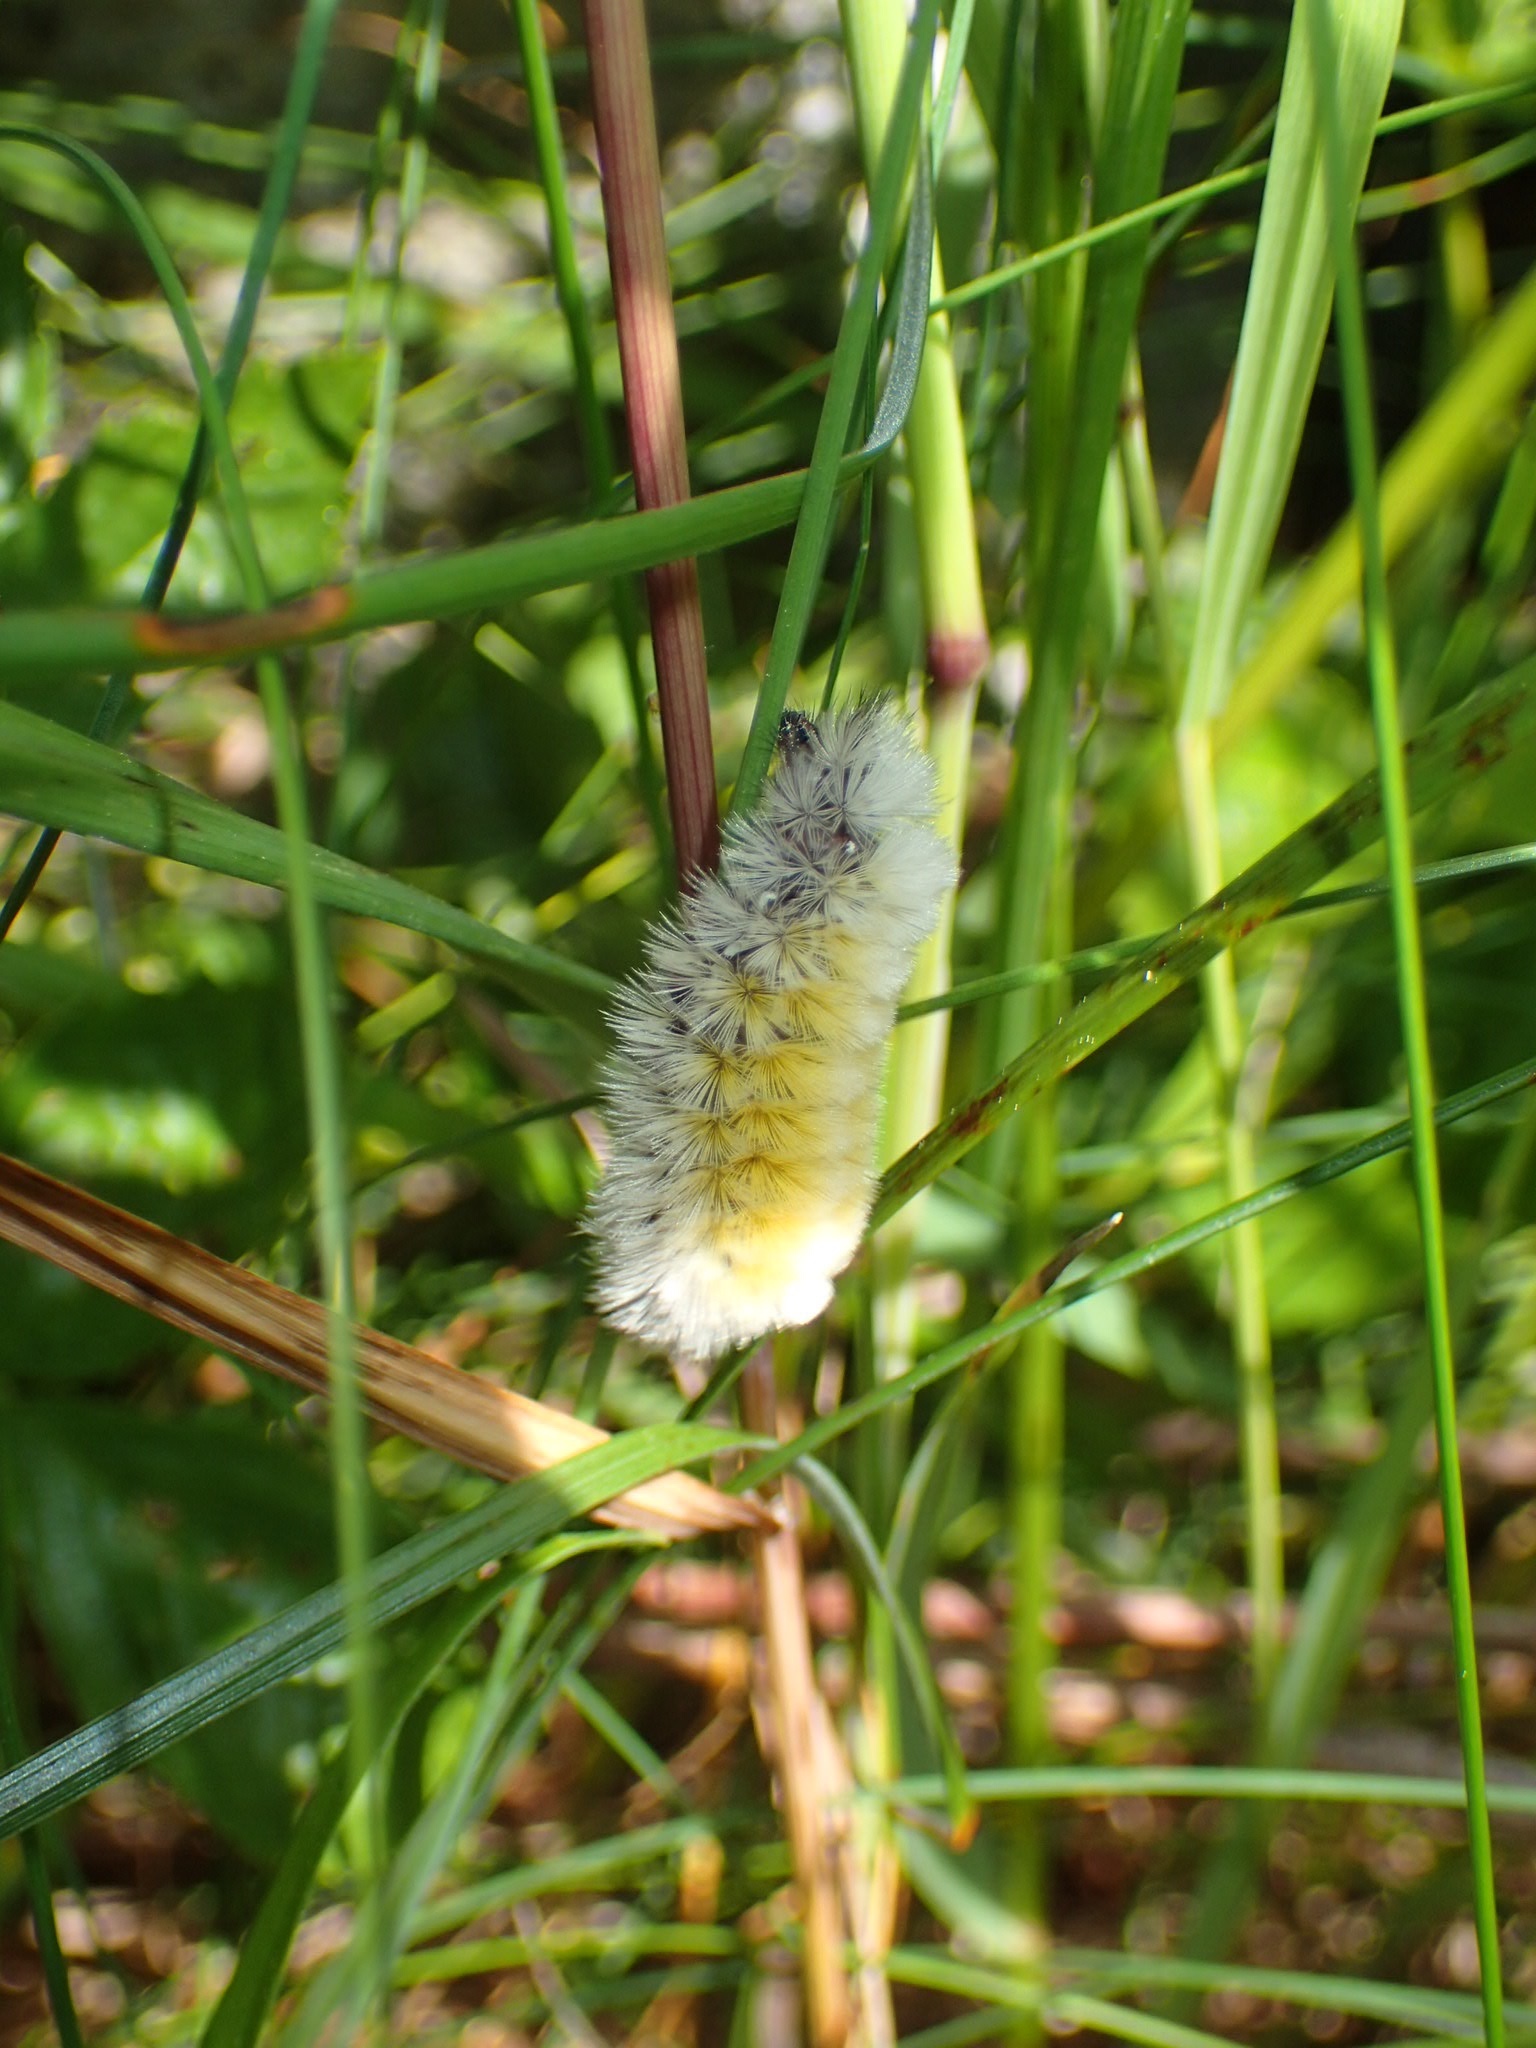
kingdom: Animalia
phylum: Arthropoda
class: Insecta
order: Lepidoptera
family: Erebidae
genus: Ctenucha
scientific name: Ctenucha virginica
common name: Virginia ctenucha moth
